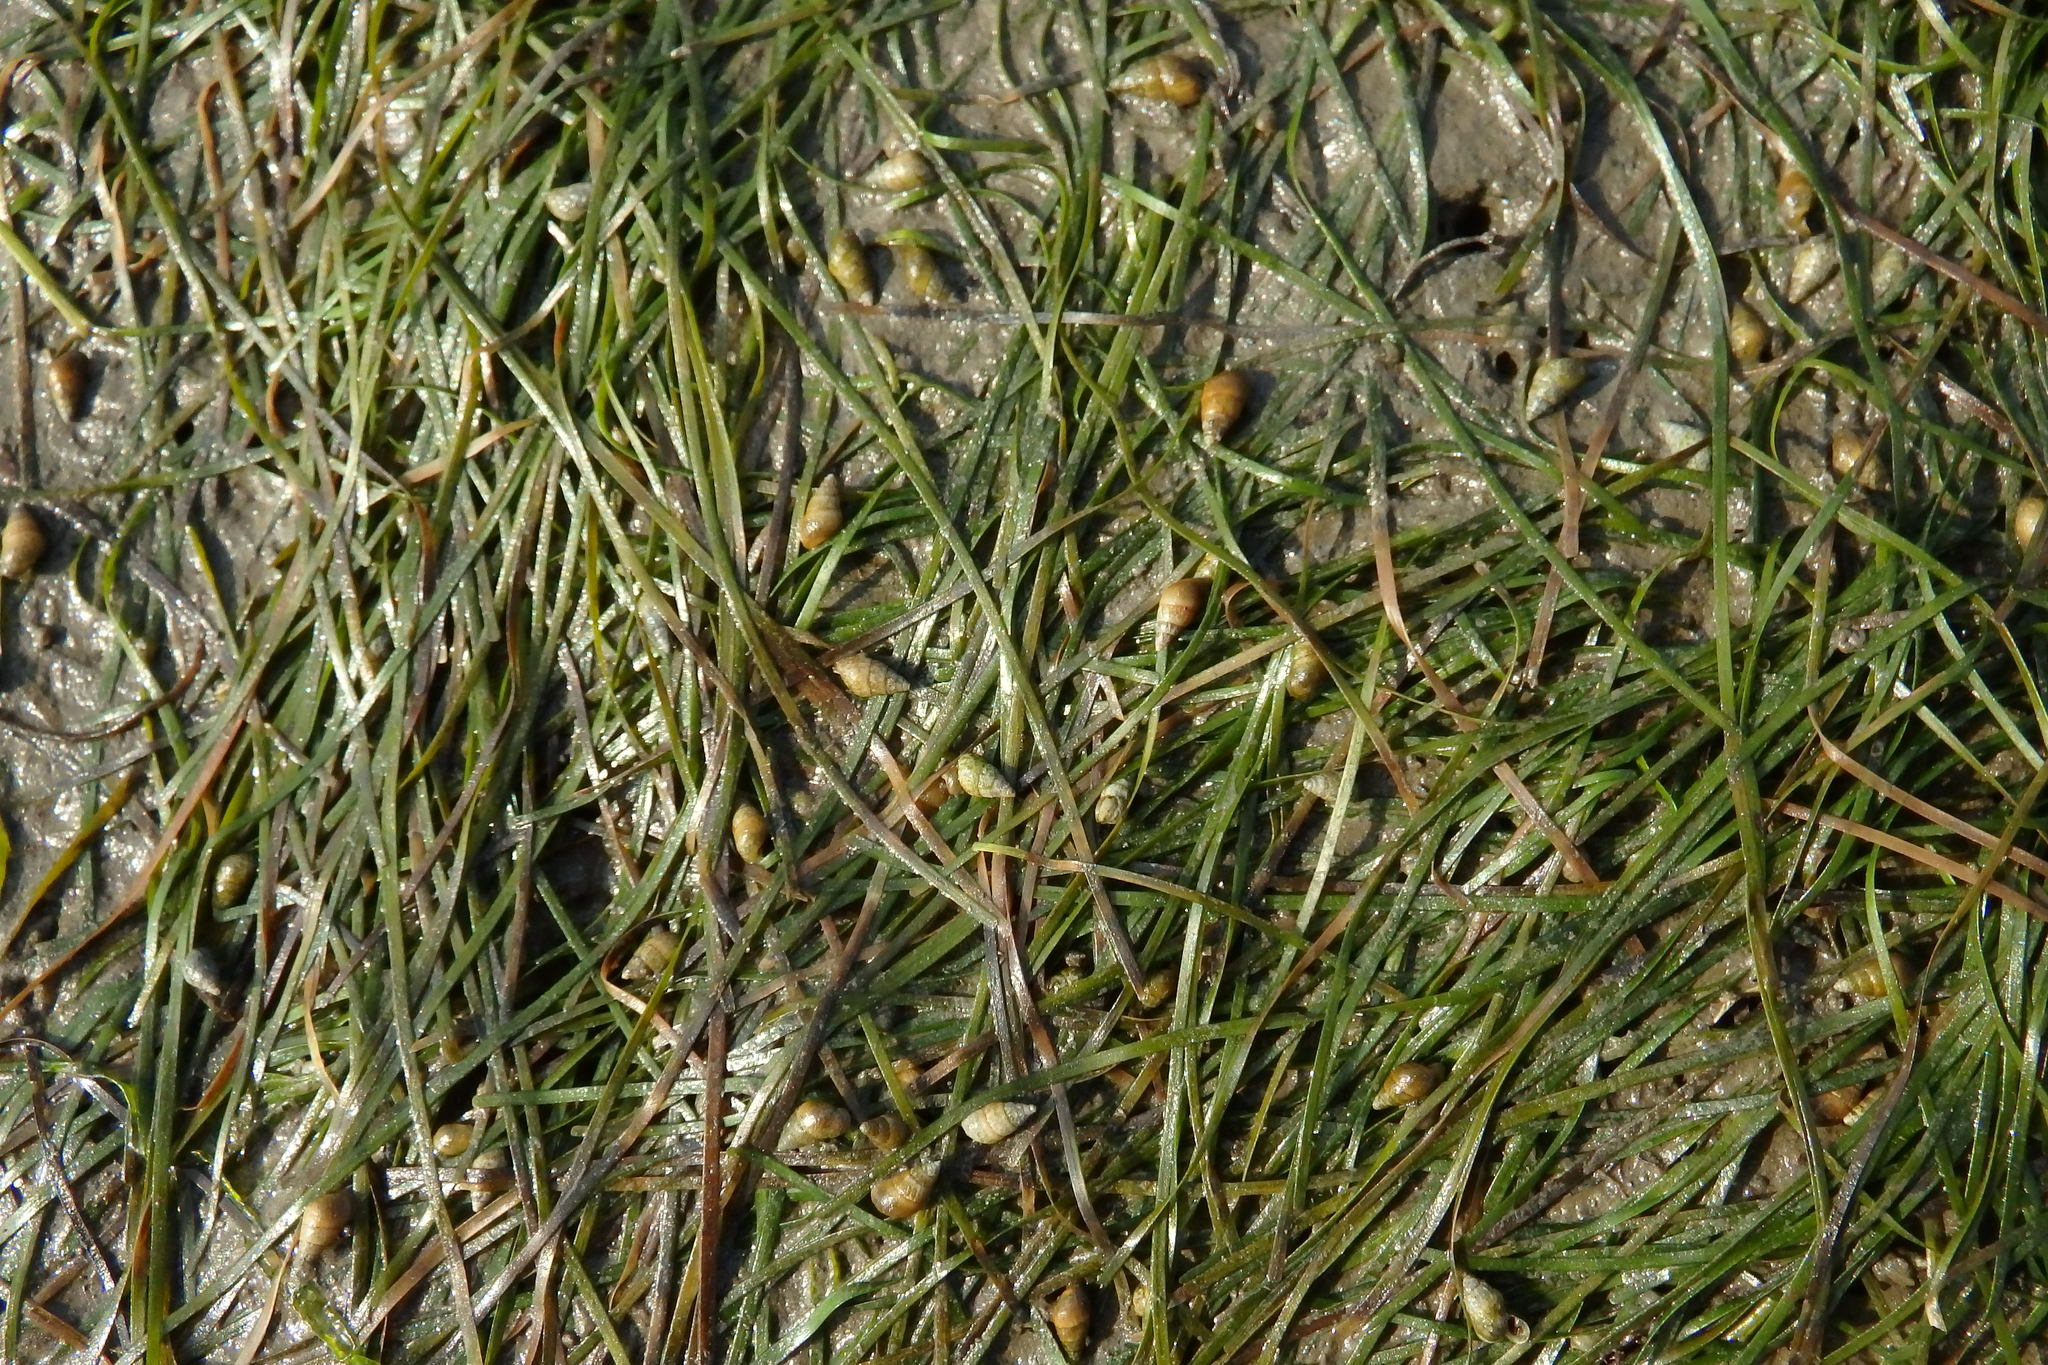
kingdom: Plantae
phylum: Tracheophyta
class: Liliopsida
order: Alismatales
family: Zosteraceae
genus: Zostera
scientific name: Zostera noltii
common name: Dwarf eelgrass
